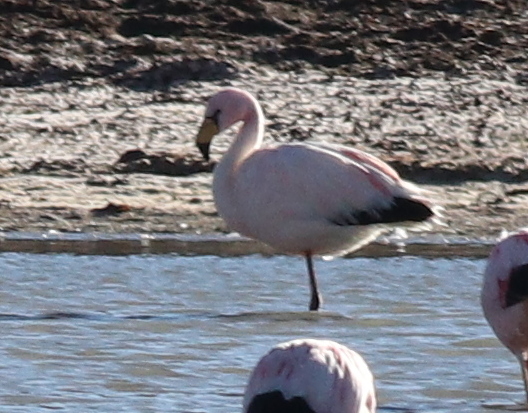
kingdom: Animalia
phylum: Chordata
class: Aves
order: Phoenicopteriformes
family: Phoenicopteridae
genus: Phoenicoparrus
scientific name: Phoenicoparrus jamesi
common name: James's flamingo
